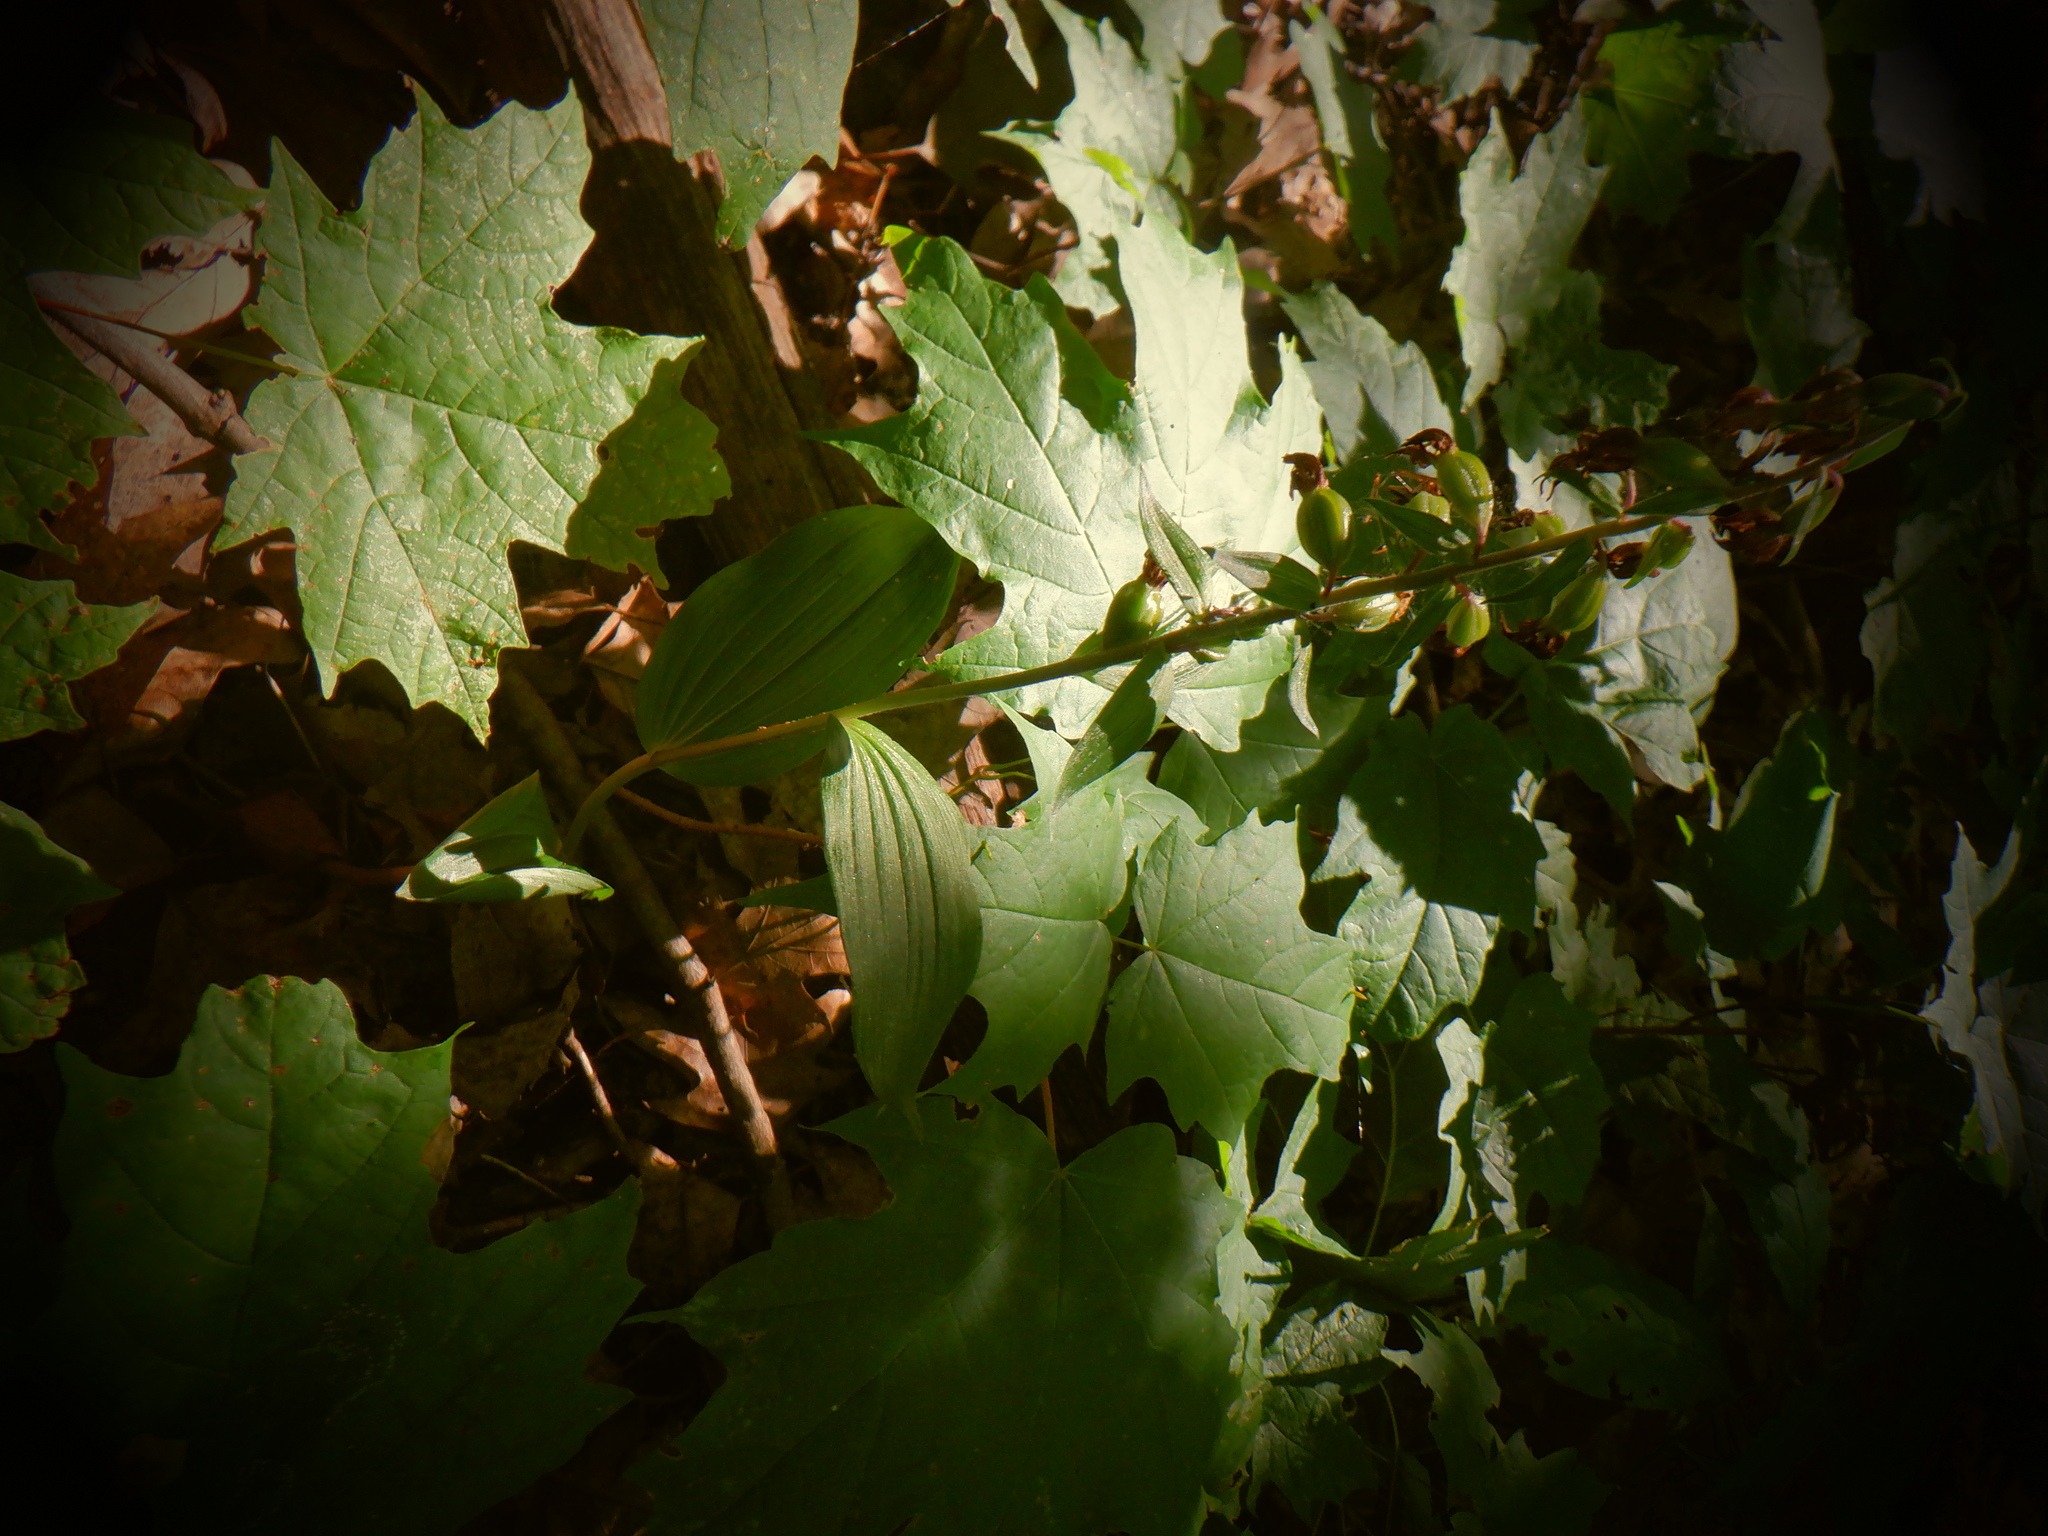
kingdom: Plantae
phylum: Tracheophyta
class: Liliopsida
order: Asparagales
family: Orchidaceae
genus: Epipactis
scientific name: Epipactis helleborine
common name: Broad-leaved helleborine
